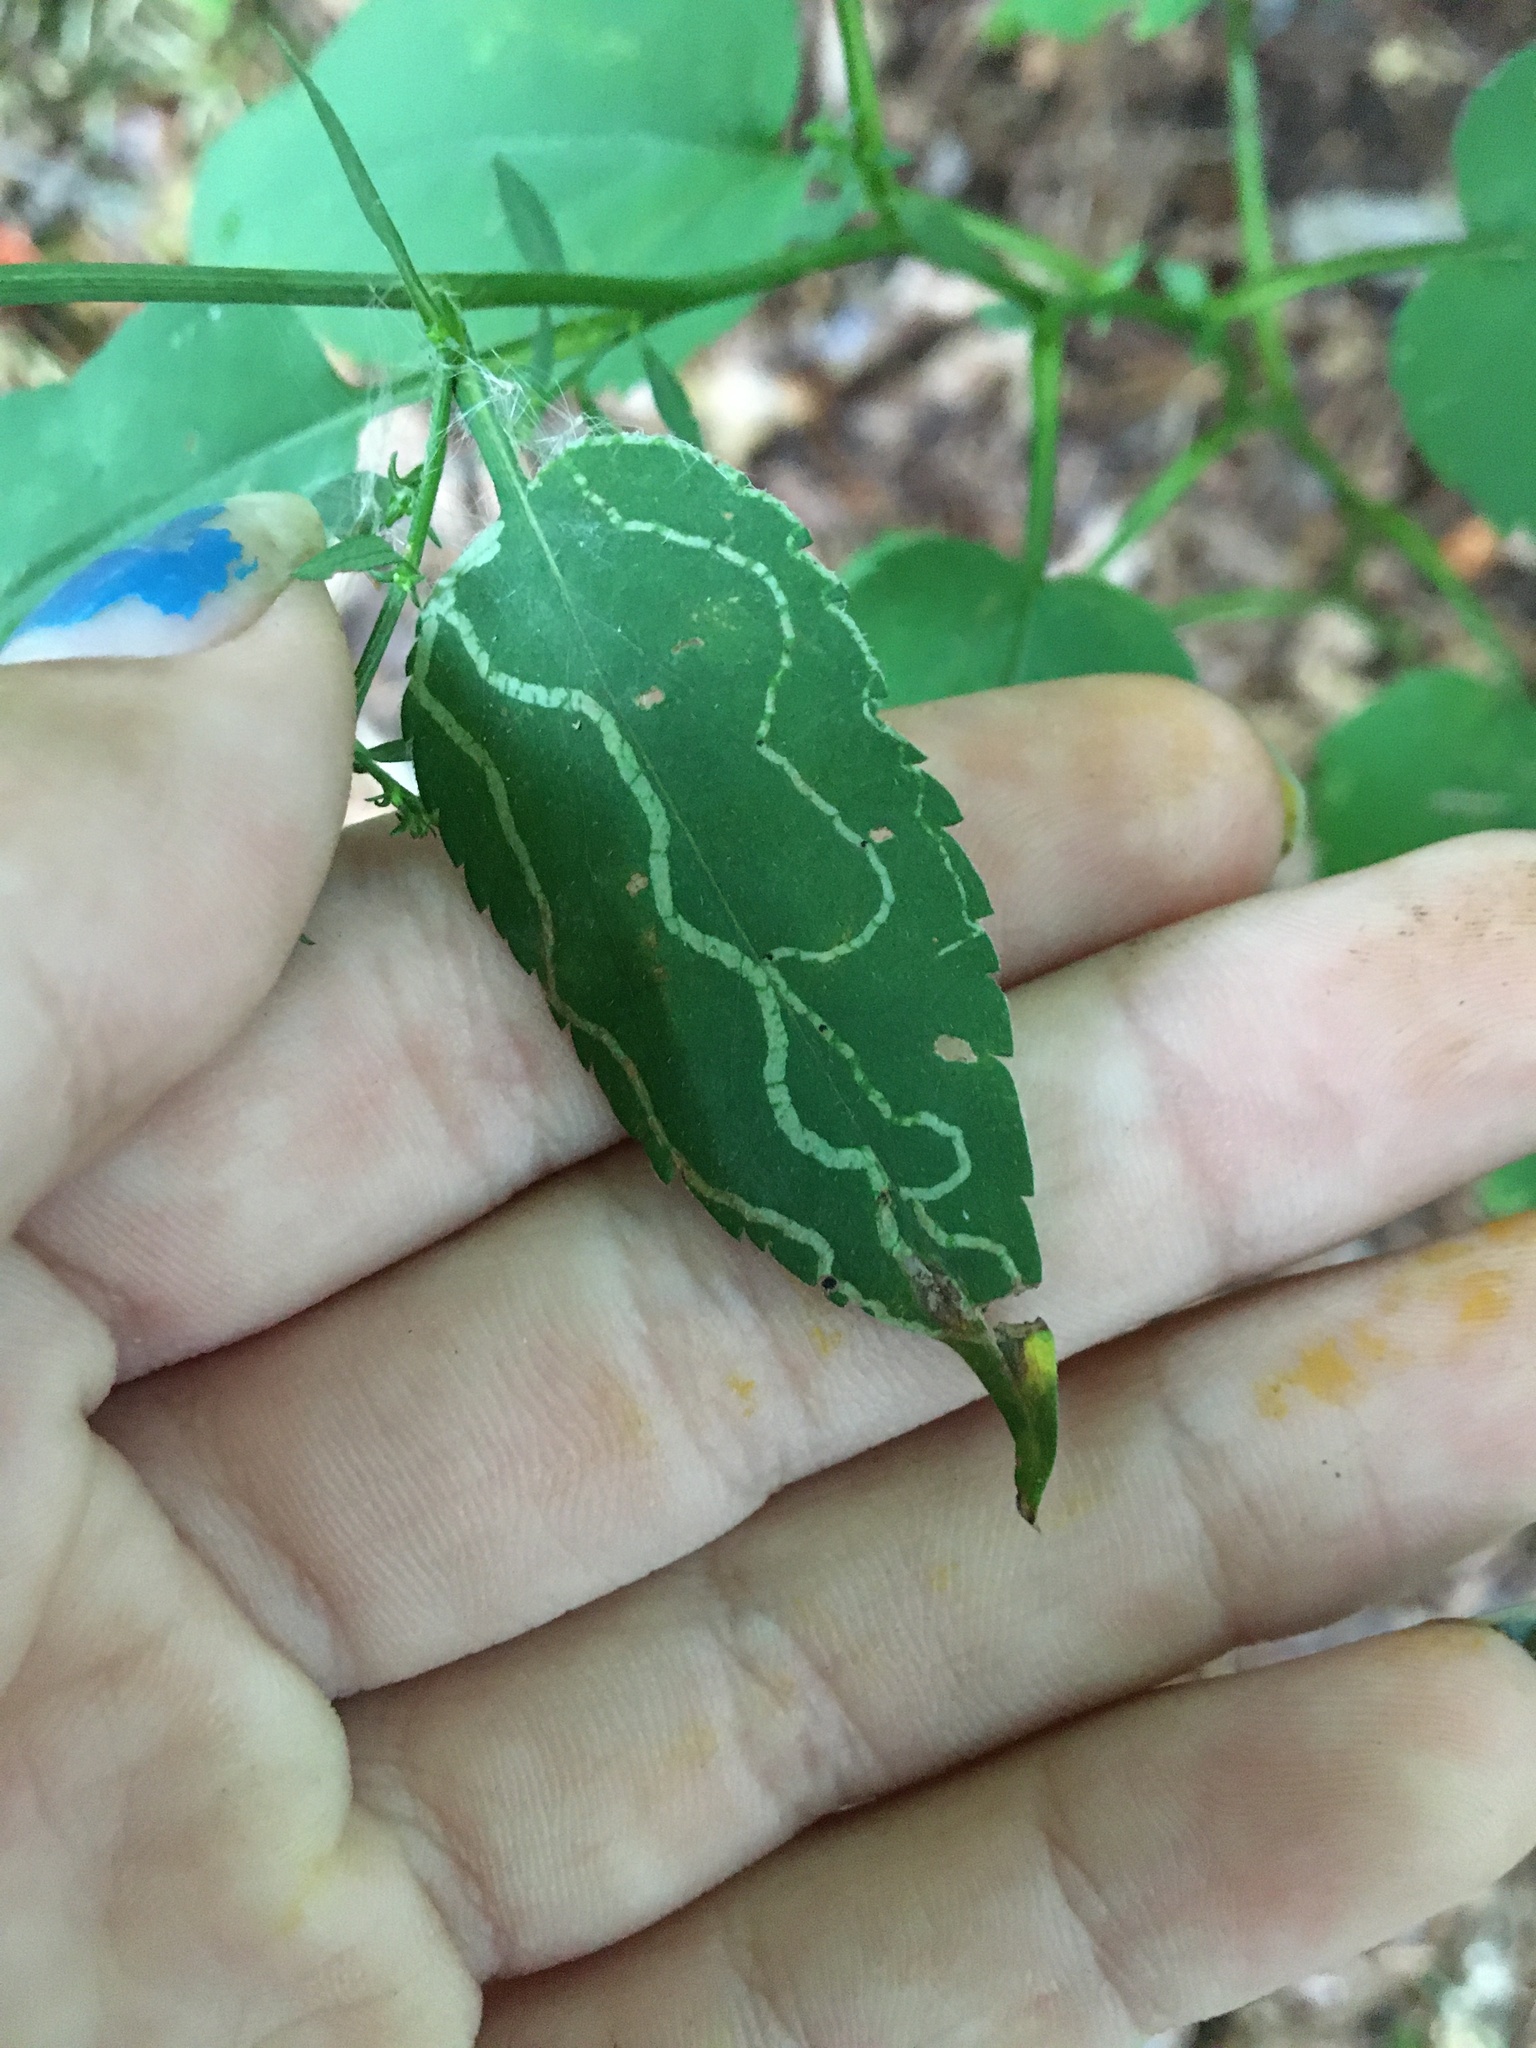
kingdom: Animalia
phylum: Arthropoda
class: Insecta
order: Diptera
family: Agromyzidae
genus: Ophiomyia
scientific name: Ophiomyia parda
